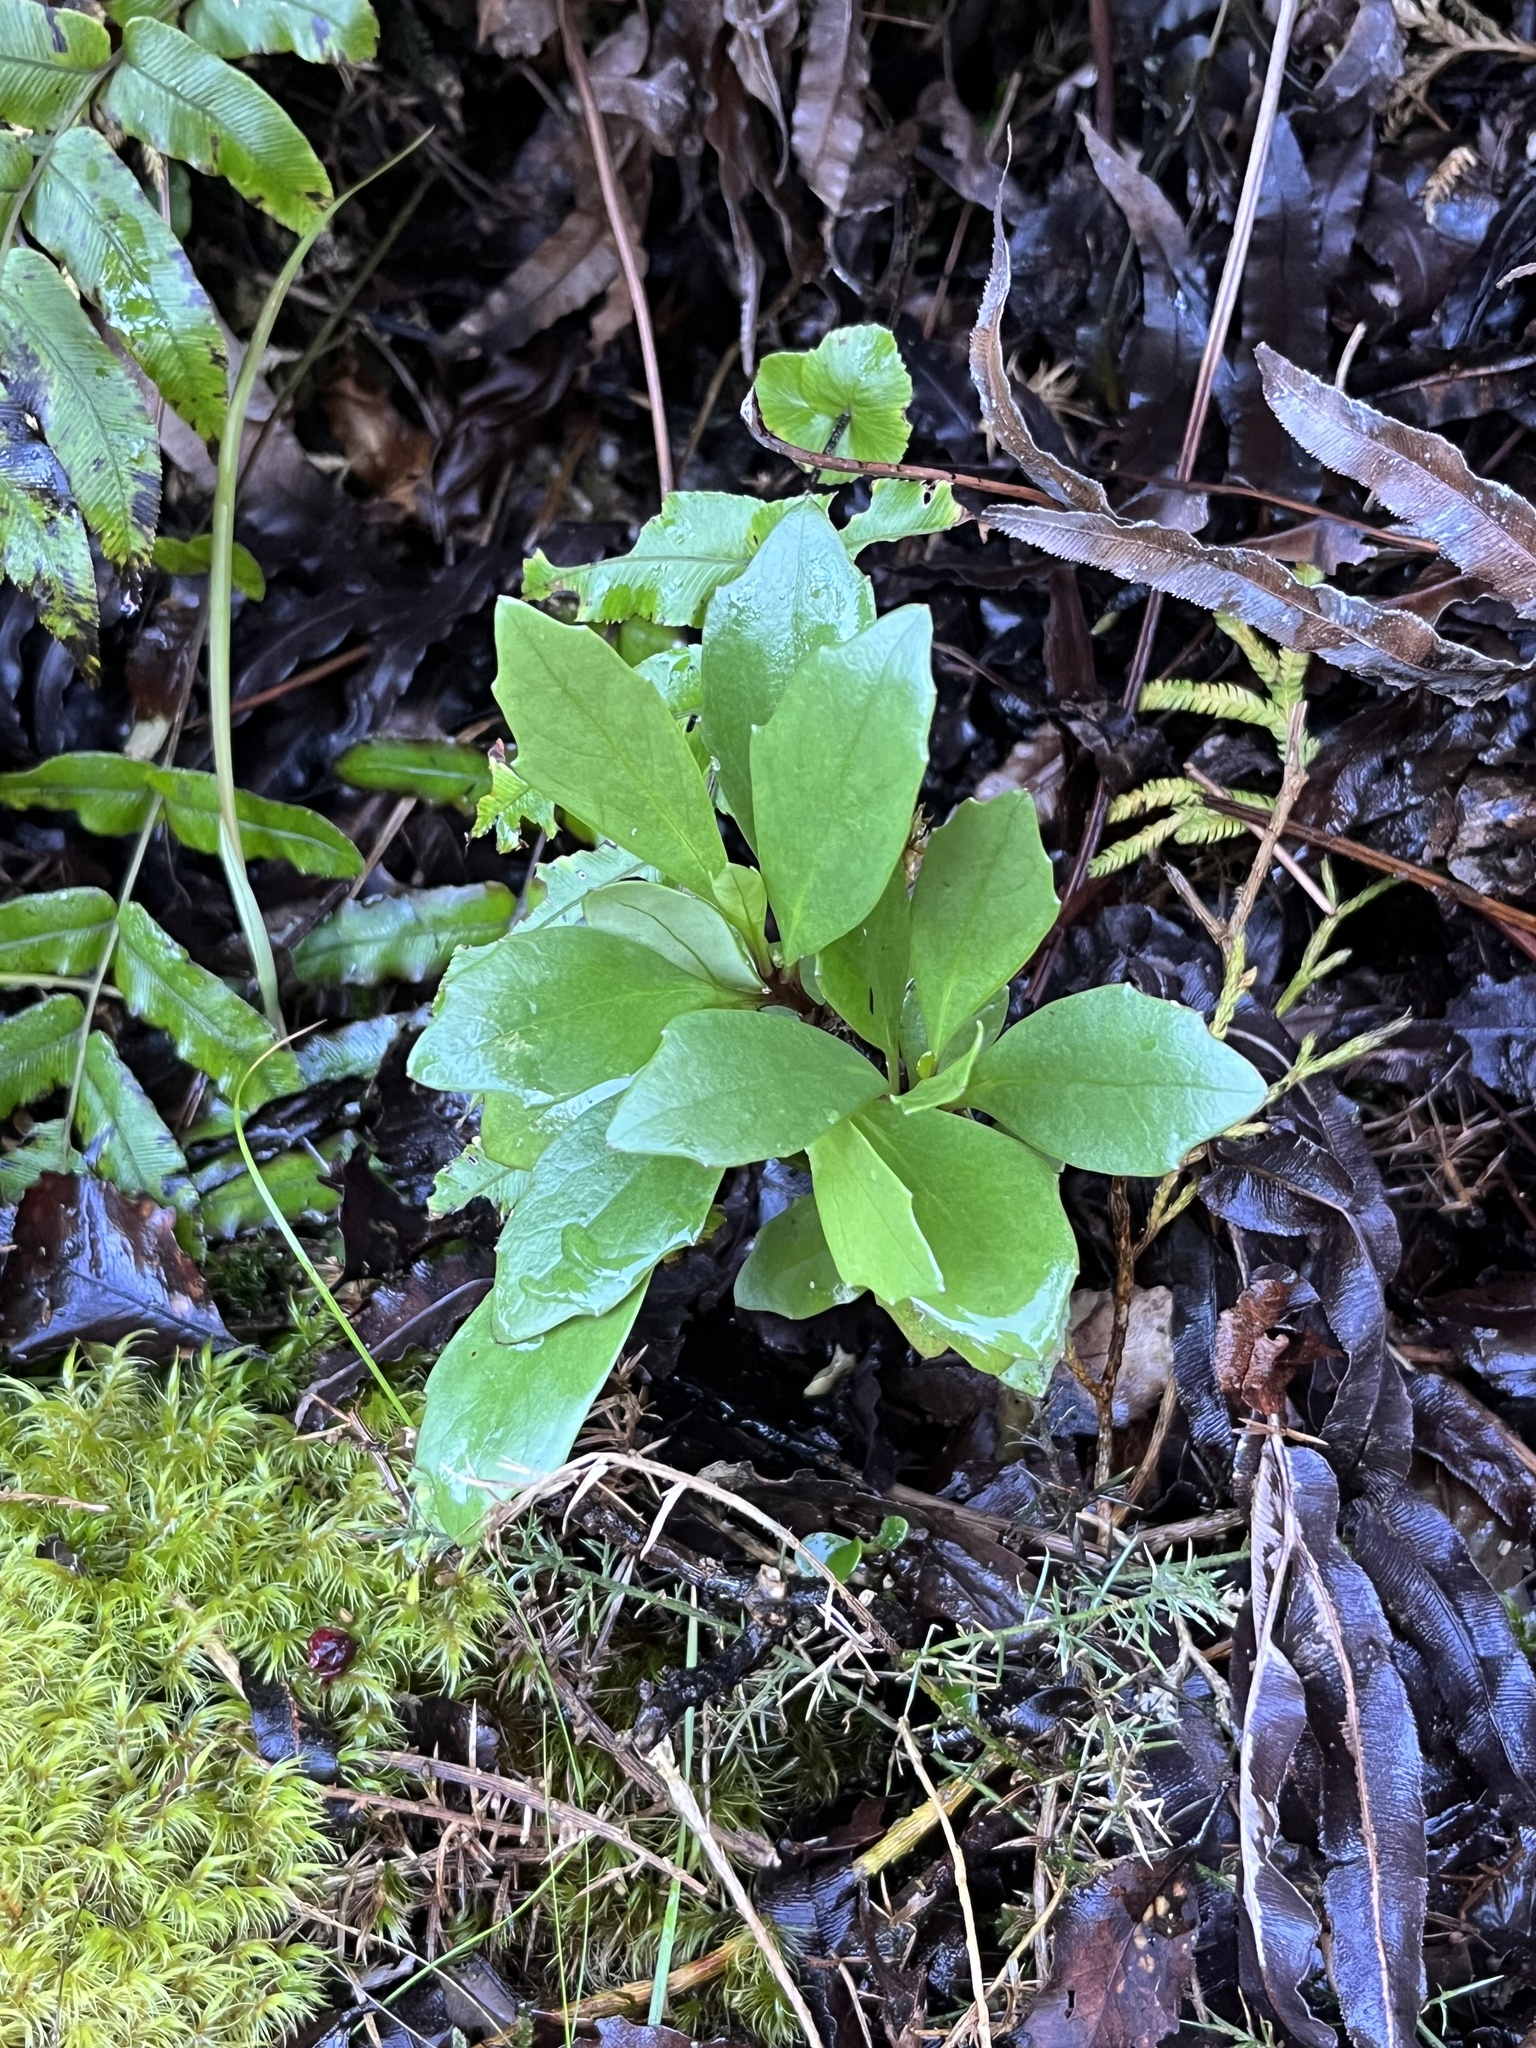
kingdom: Plantae
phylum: Tracheophyta
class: Magnoliopsida
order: Asterales
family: Asteraceae
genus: Brachyglottis
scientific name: Brachyglottis kirkii
